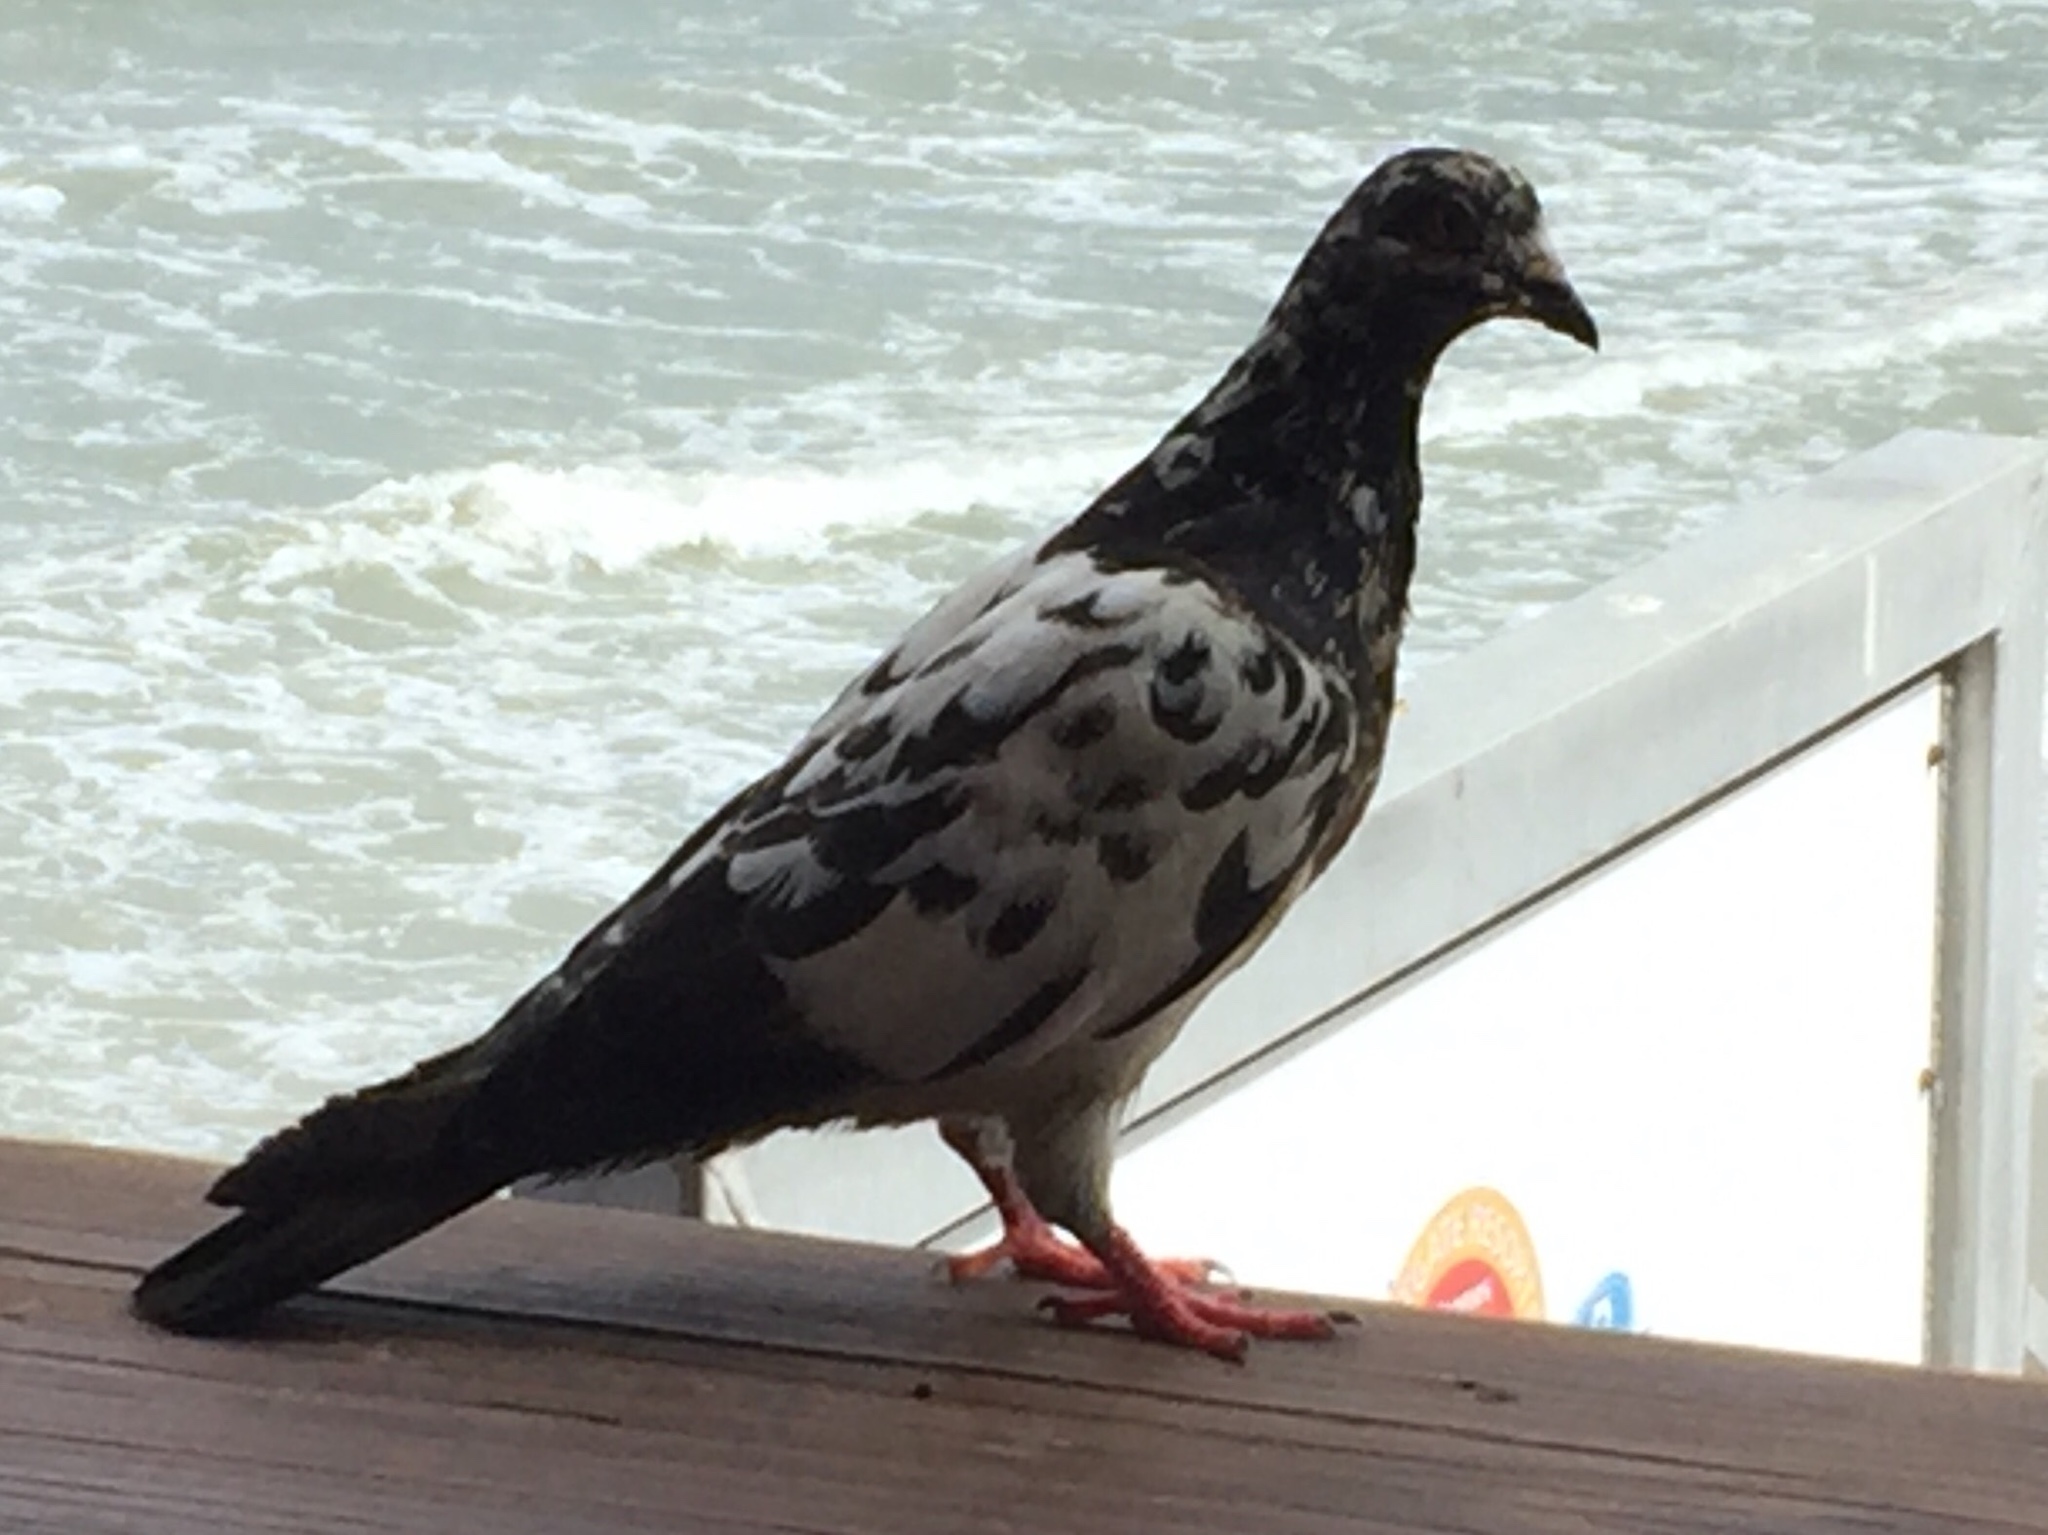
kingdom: Animalia
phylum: Chordata
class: Aves
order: Columbiformes
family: Columbidae
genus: Columba
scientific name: Columba livia
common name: Rock pigeon
